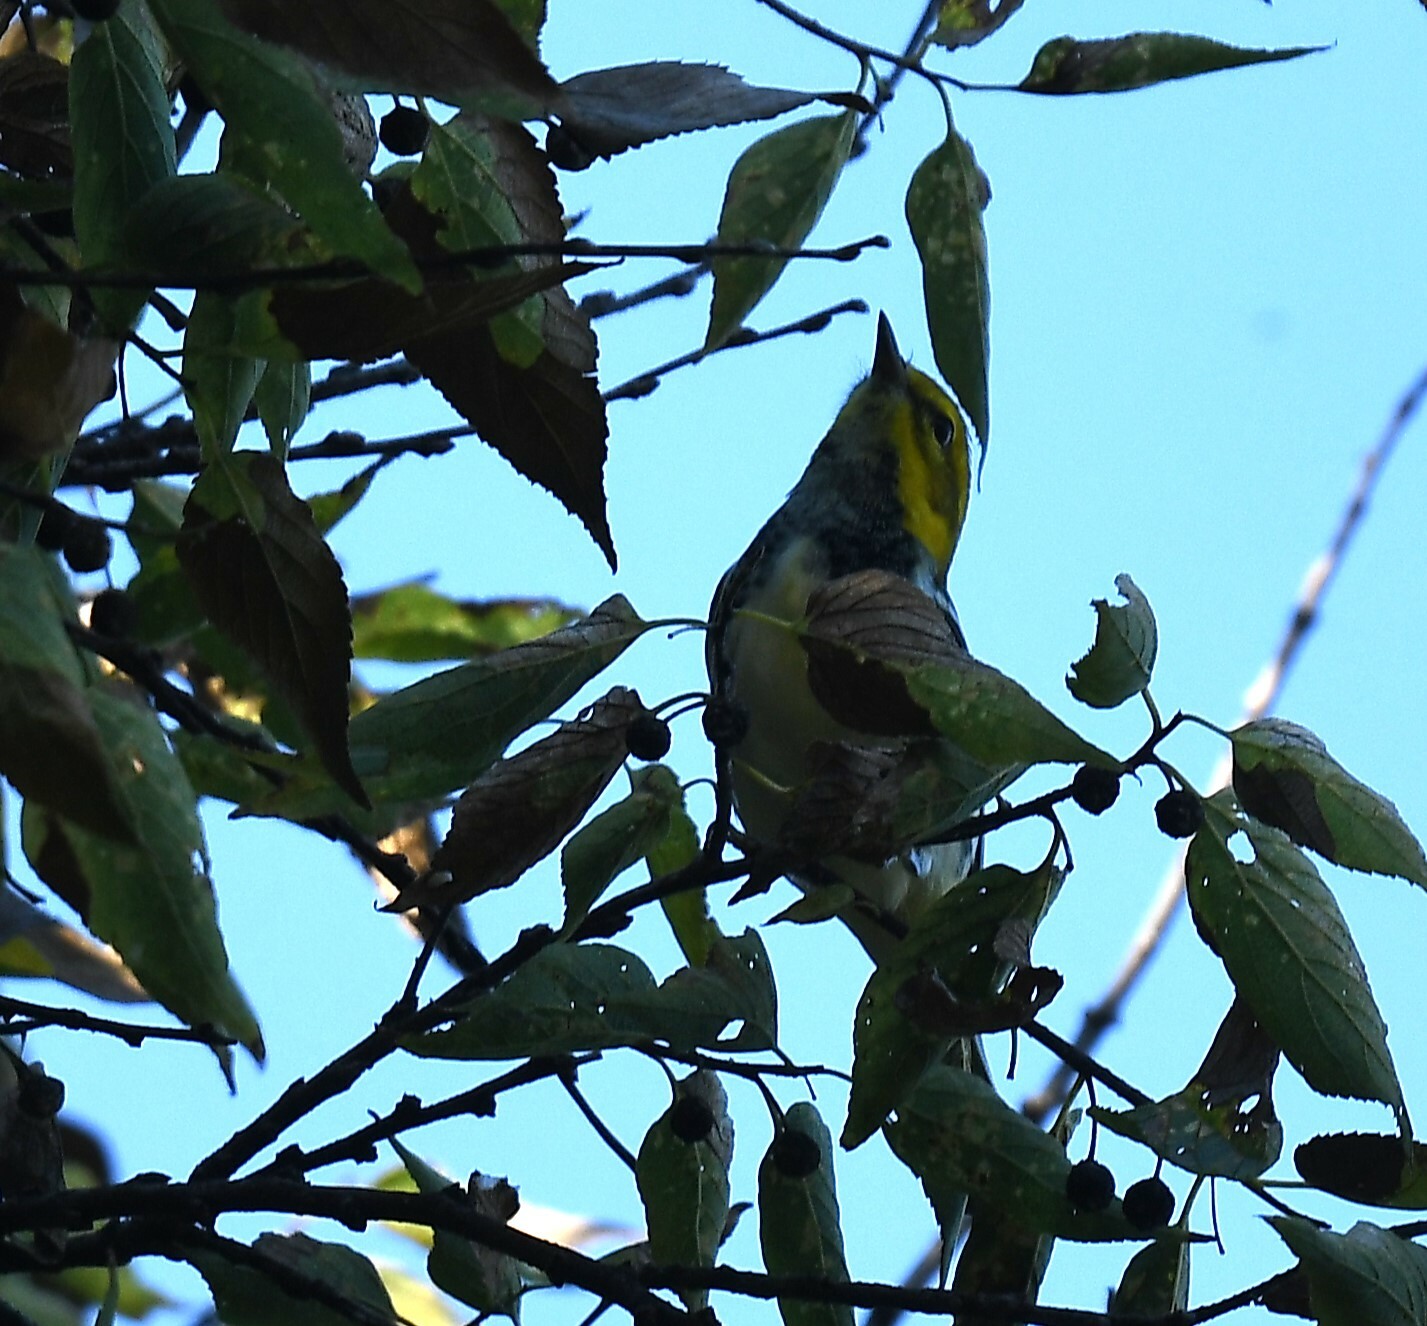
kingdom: Animalia
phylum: Chordata
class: Aves
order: Passeriformes
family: Parulidae
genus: Setophaga
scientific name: Setophaga virens
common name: Black-throated green warbler
